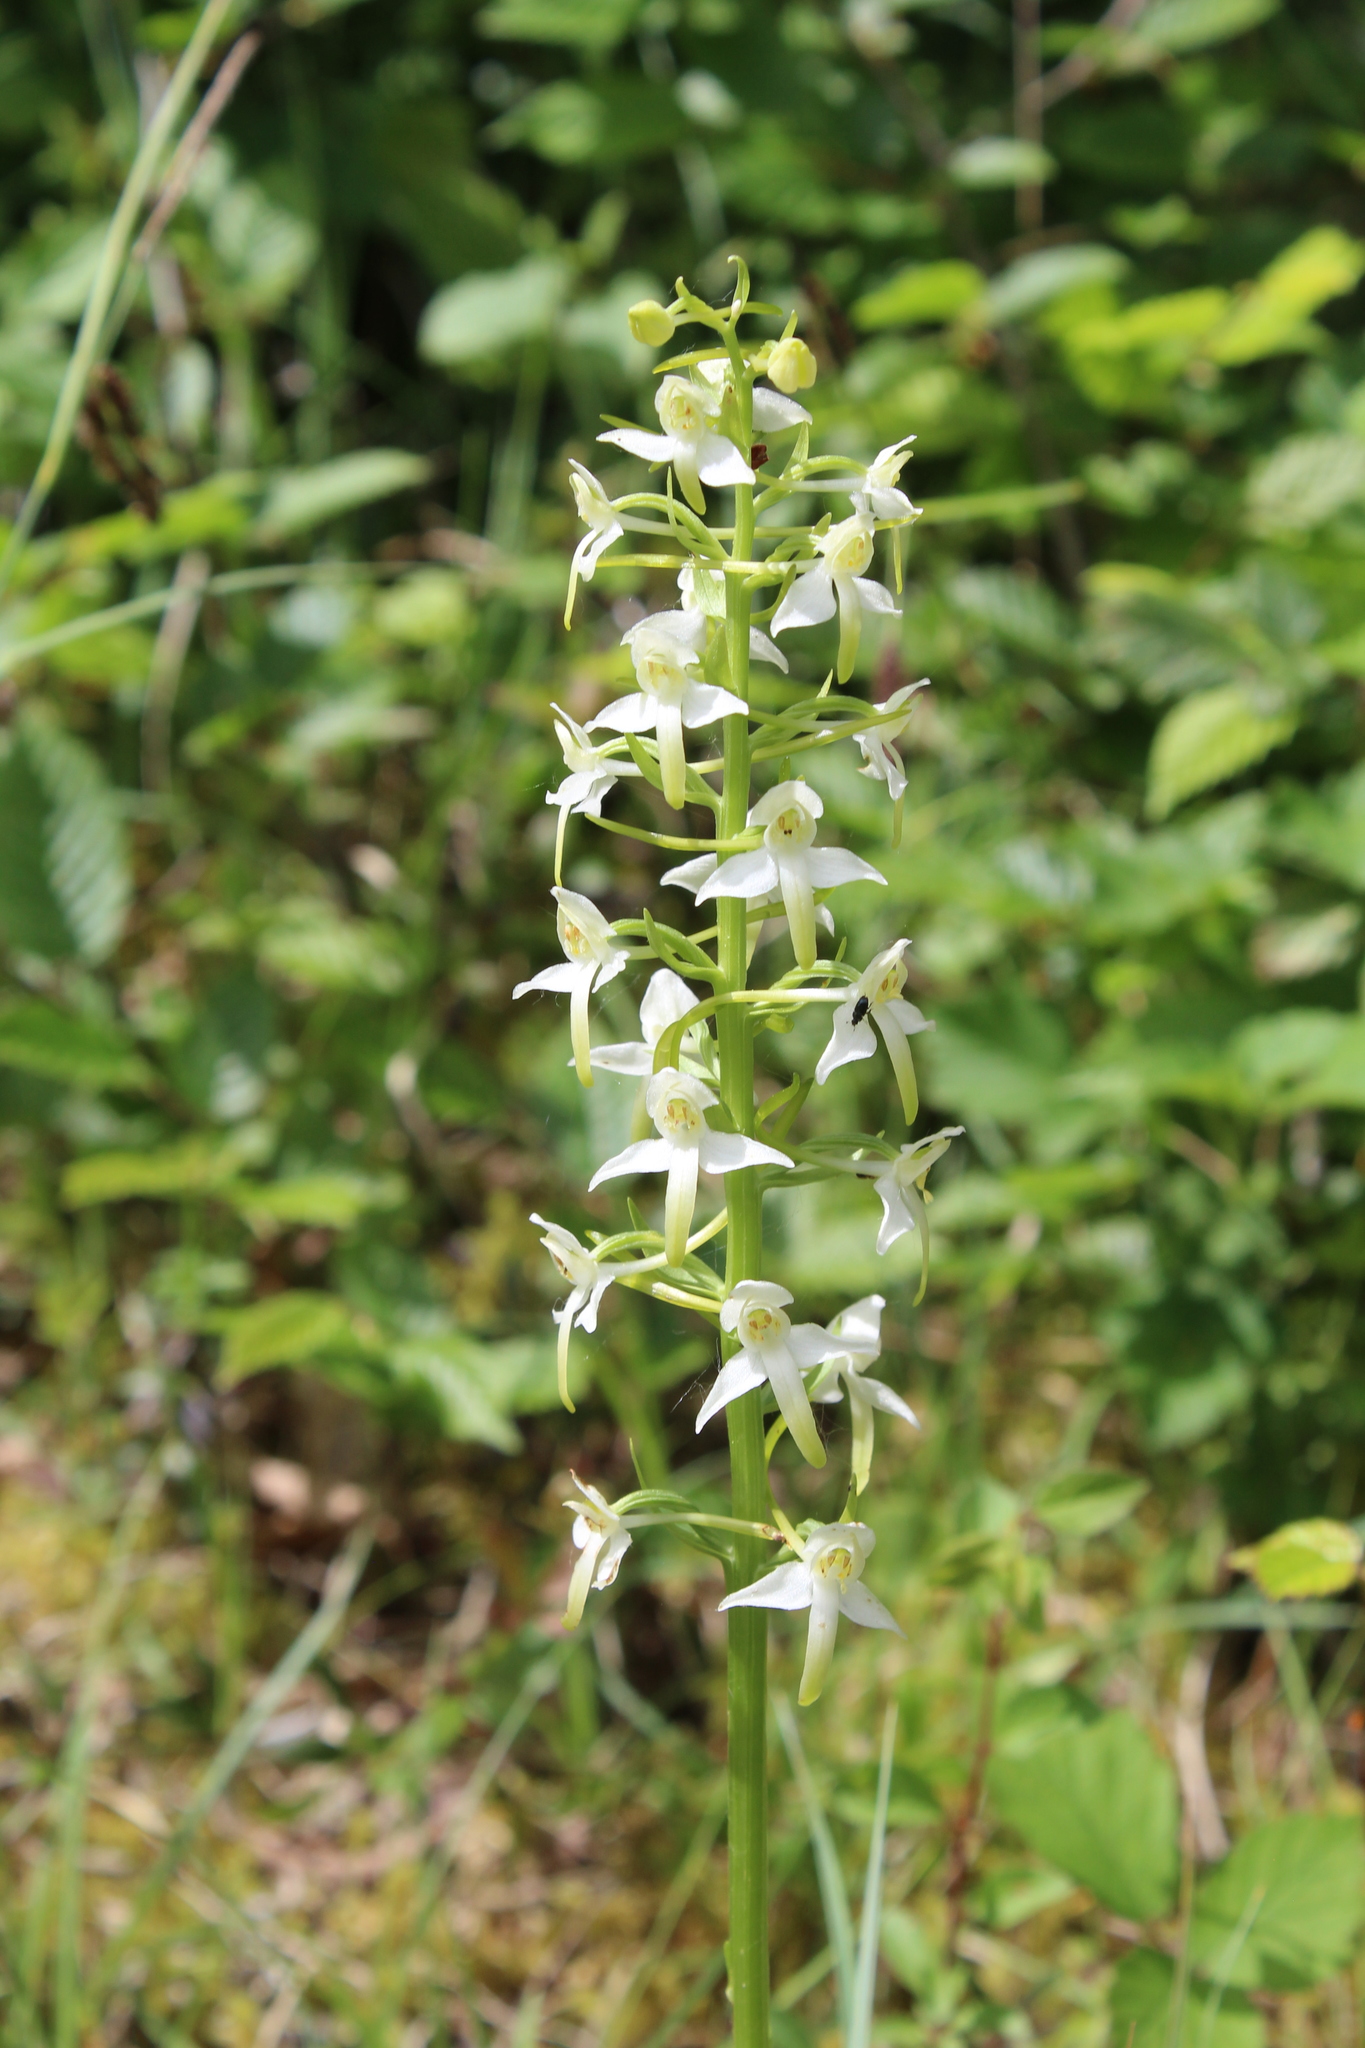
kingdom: Plantae
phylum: Tracheophyta
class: Liliopsida
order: Asparagales
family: Orchidaceae
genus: Platanthera
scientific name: Platanthera bifolia
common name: Lesser butterfly-orchid
